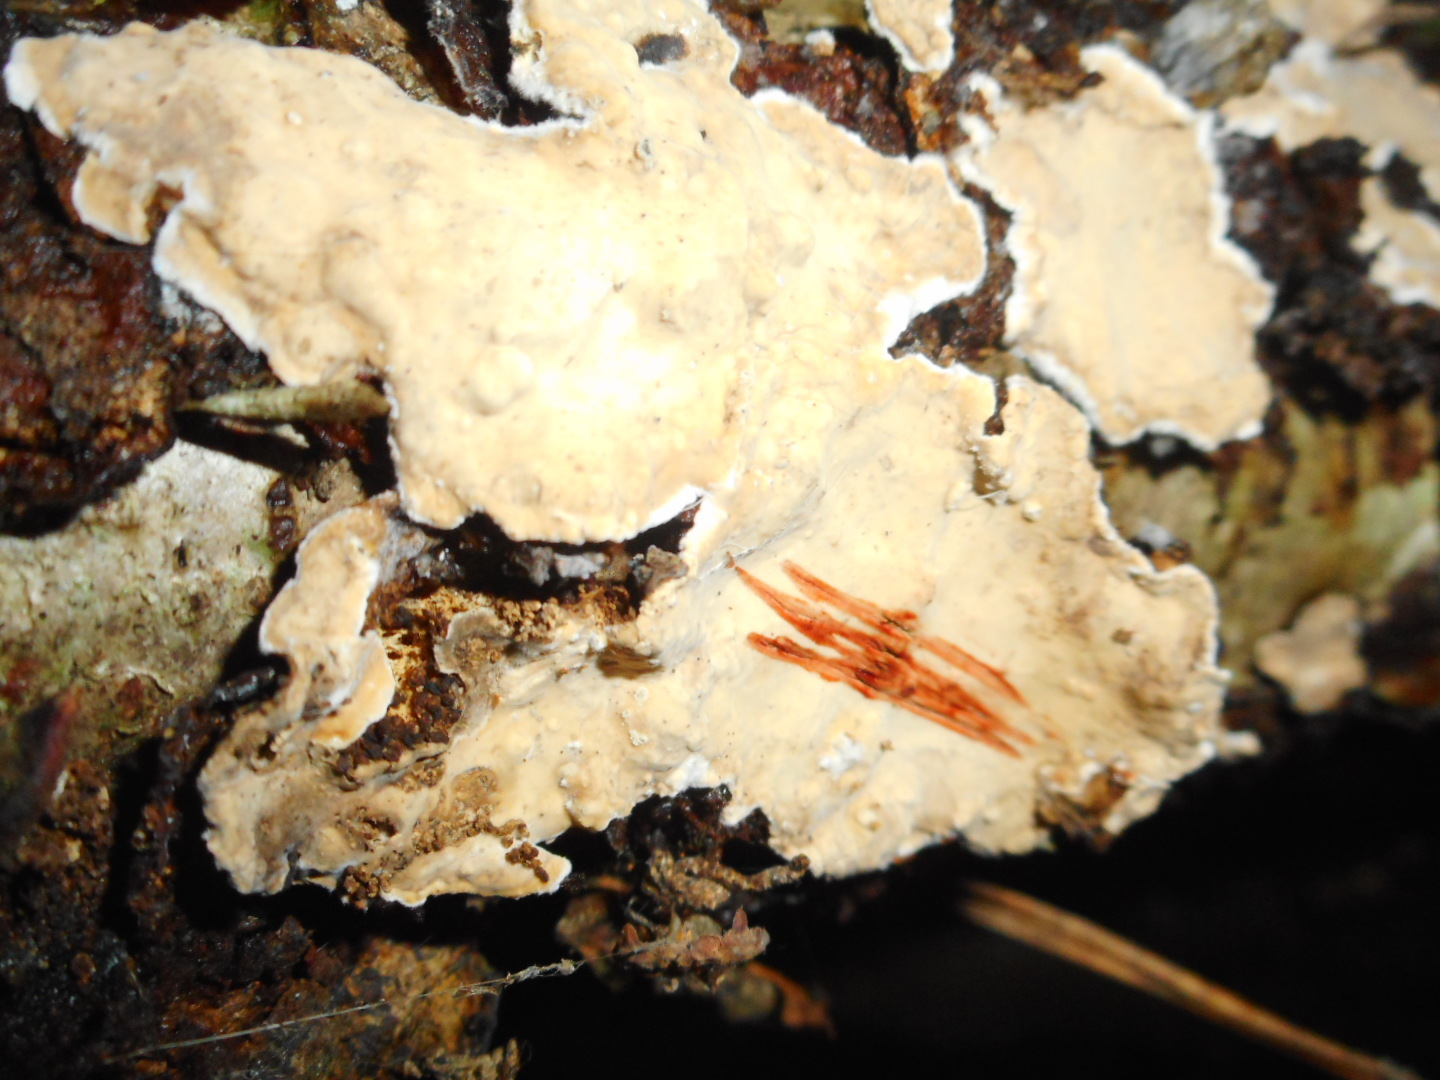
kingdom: Fungi
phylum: Basidiomycota
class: Agaricomycetes
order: Russulales
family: Stereaceae
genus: Stereum
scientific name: Stereum rugosum
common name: Bleeding broadleaf crust
